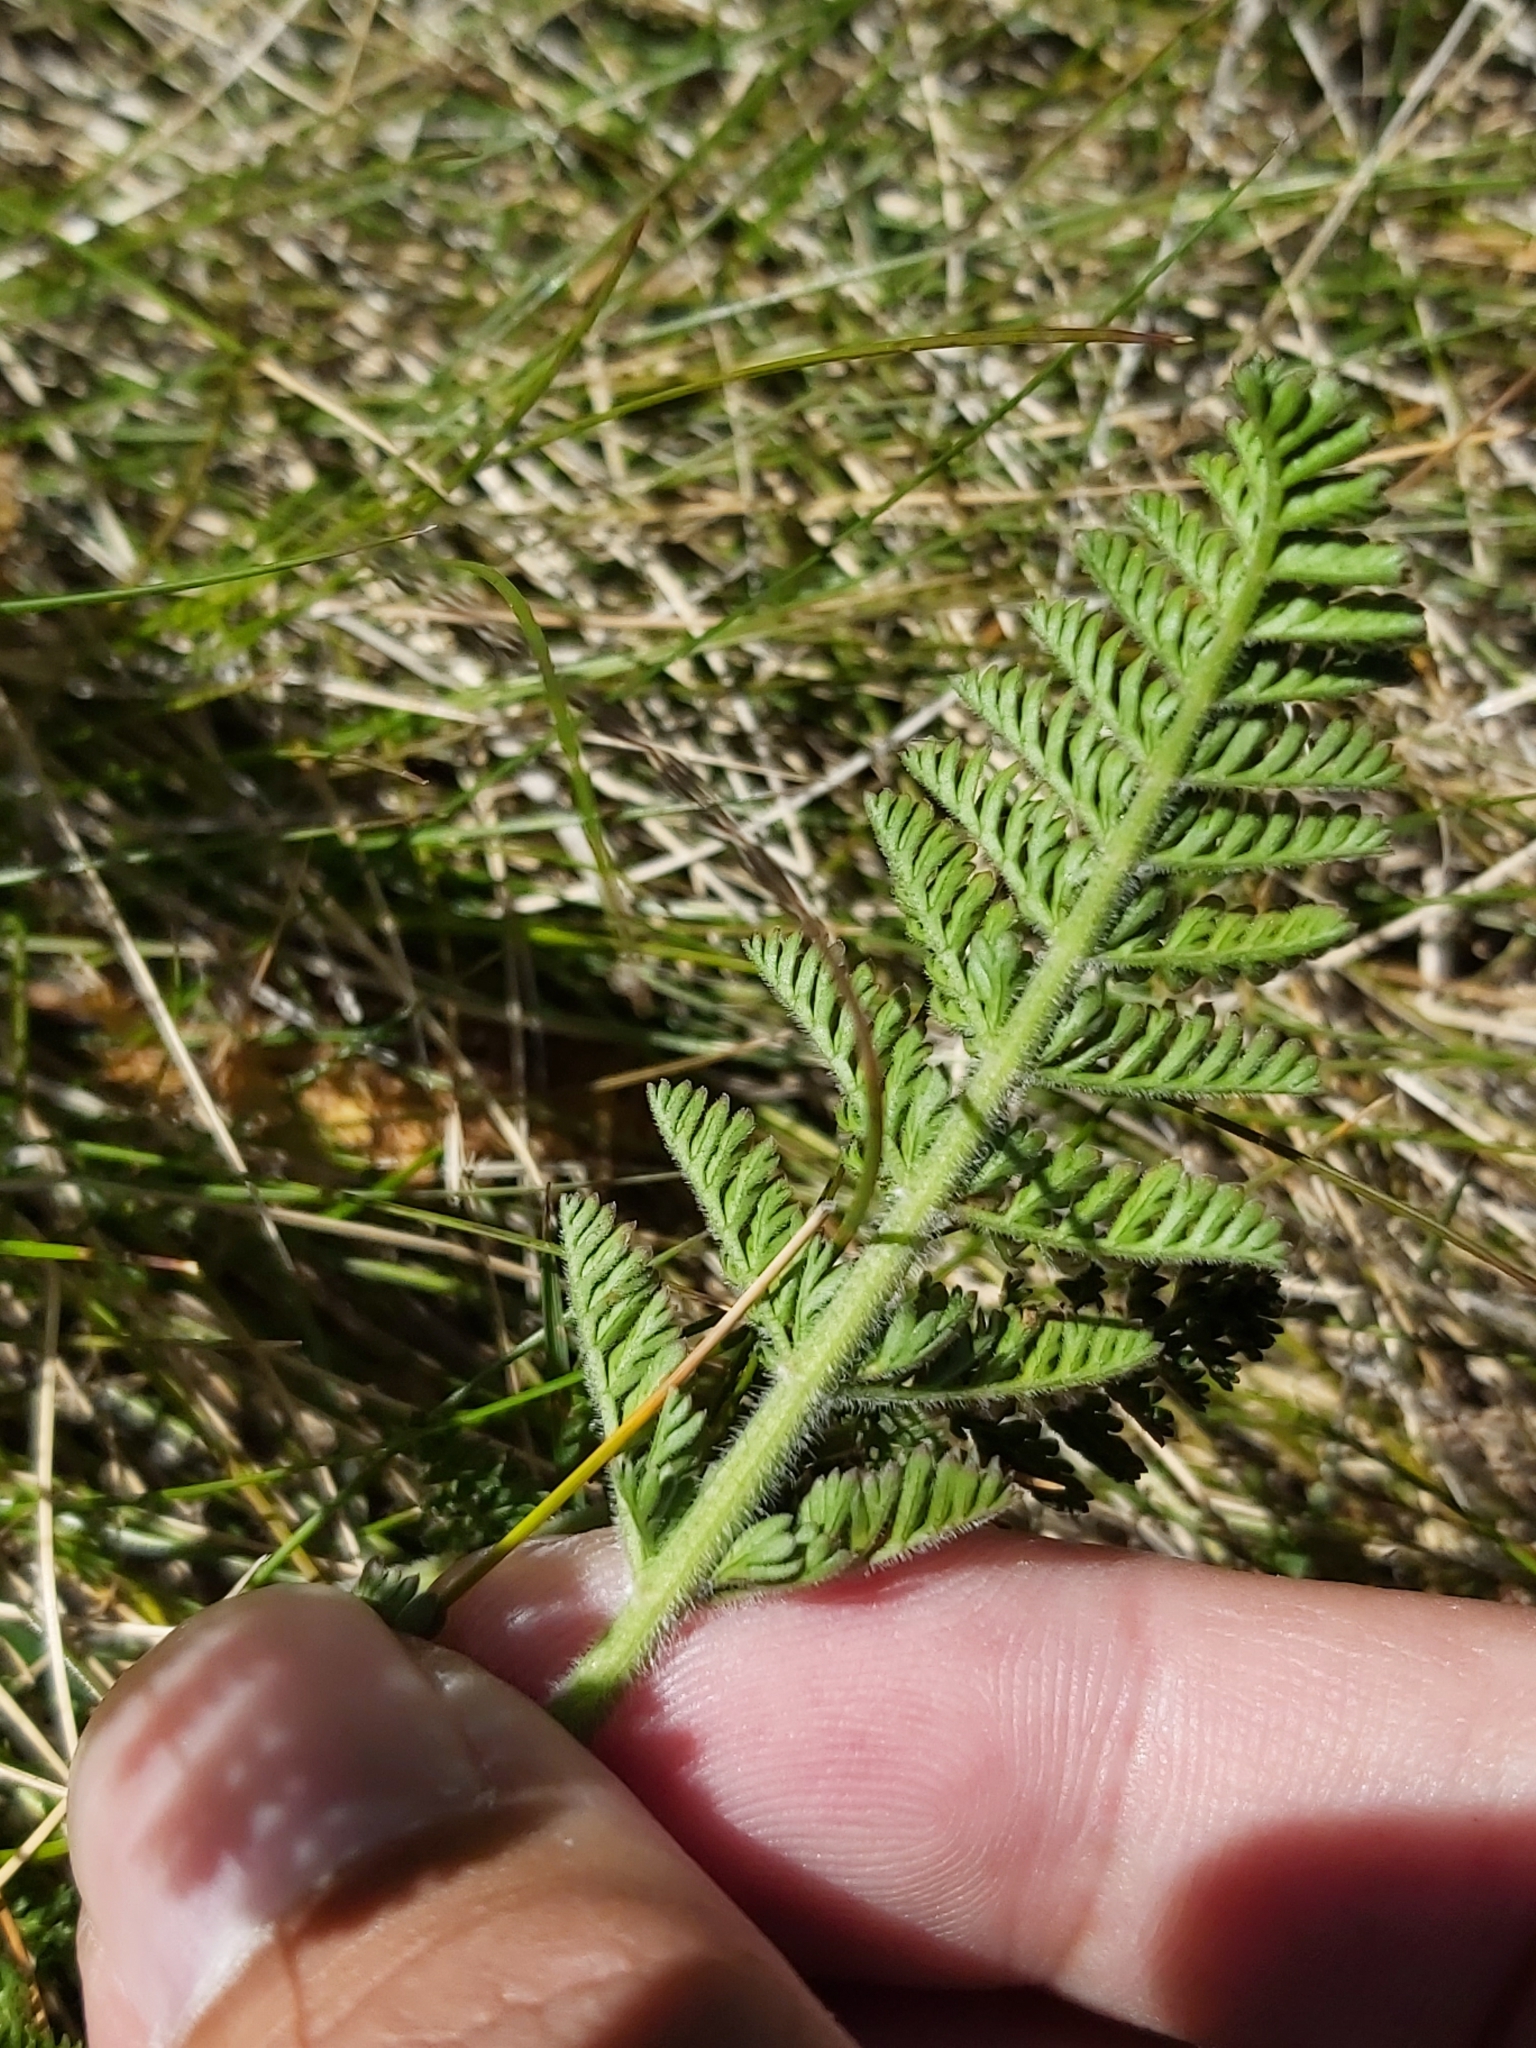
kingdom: Plantae
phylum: Tracheophyta
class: Magnoliopsida
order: Apiales
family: Apiaceae
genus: Chaerophyllum
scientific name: Chaerophyllum eriopodum
